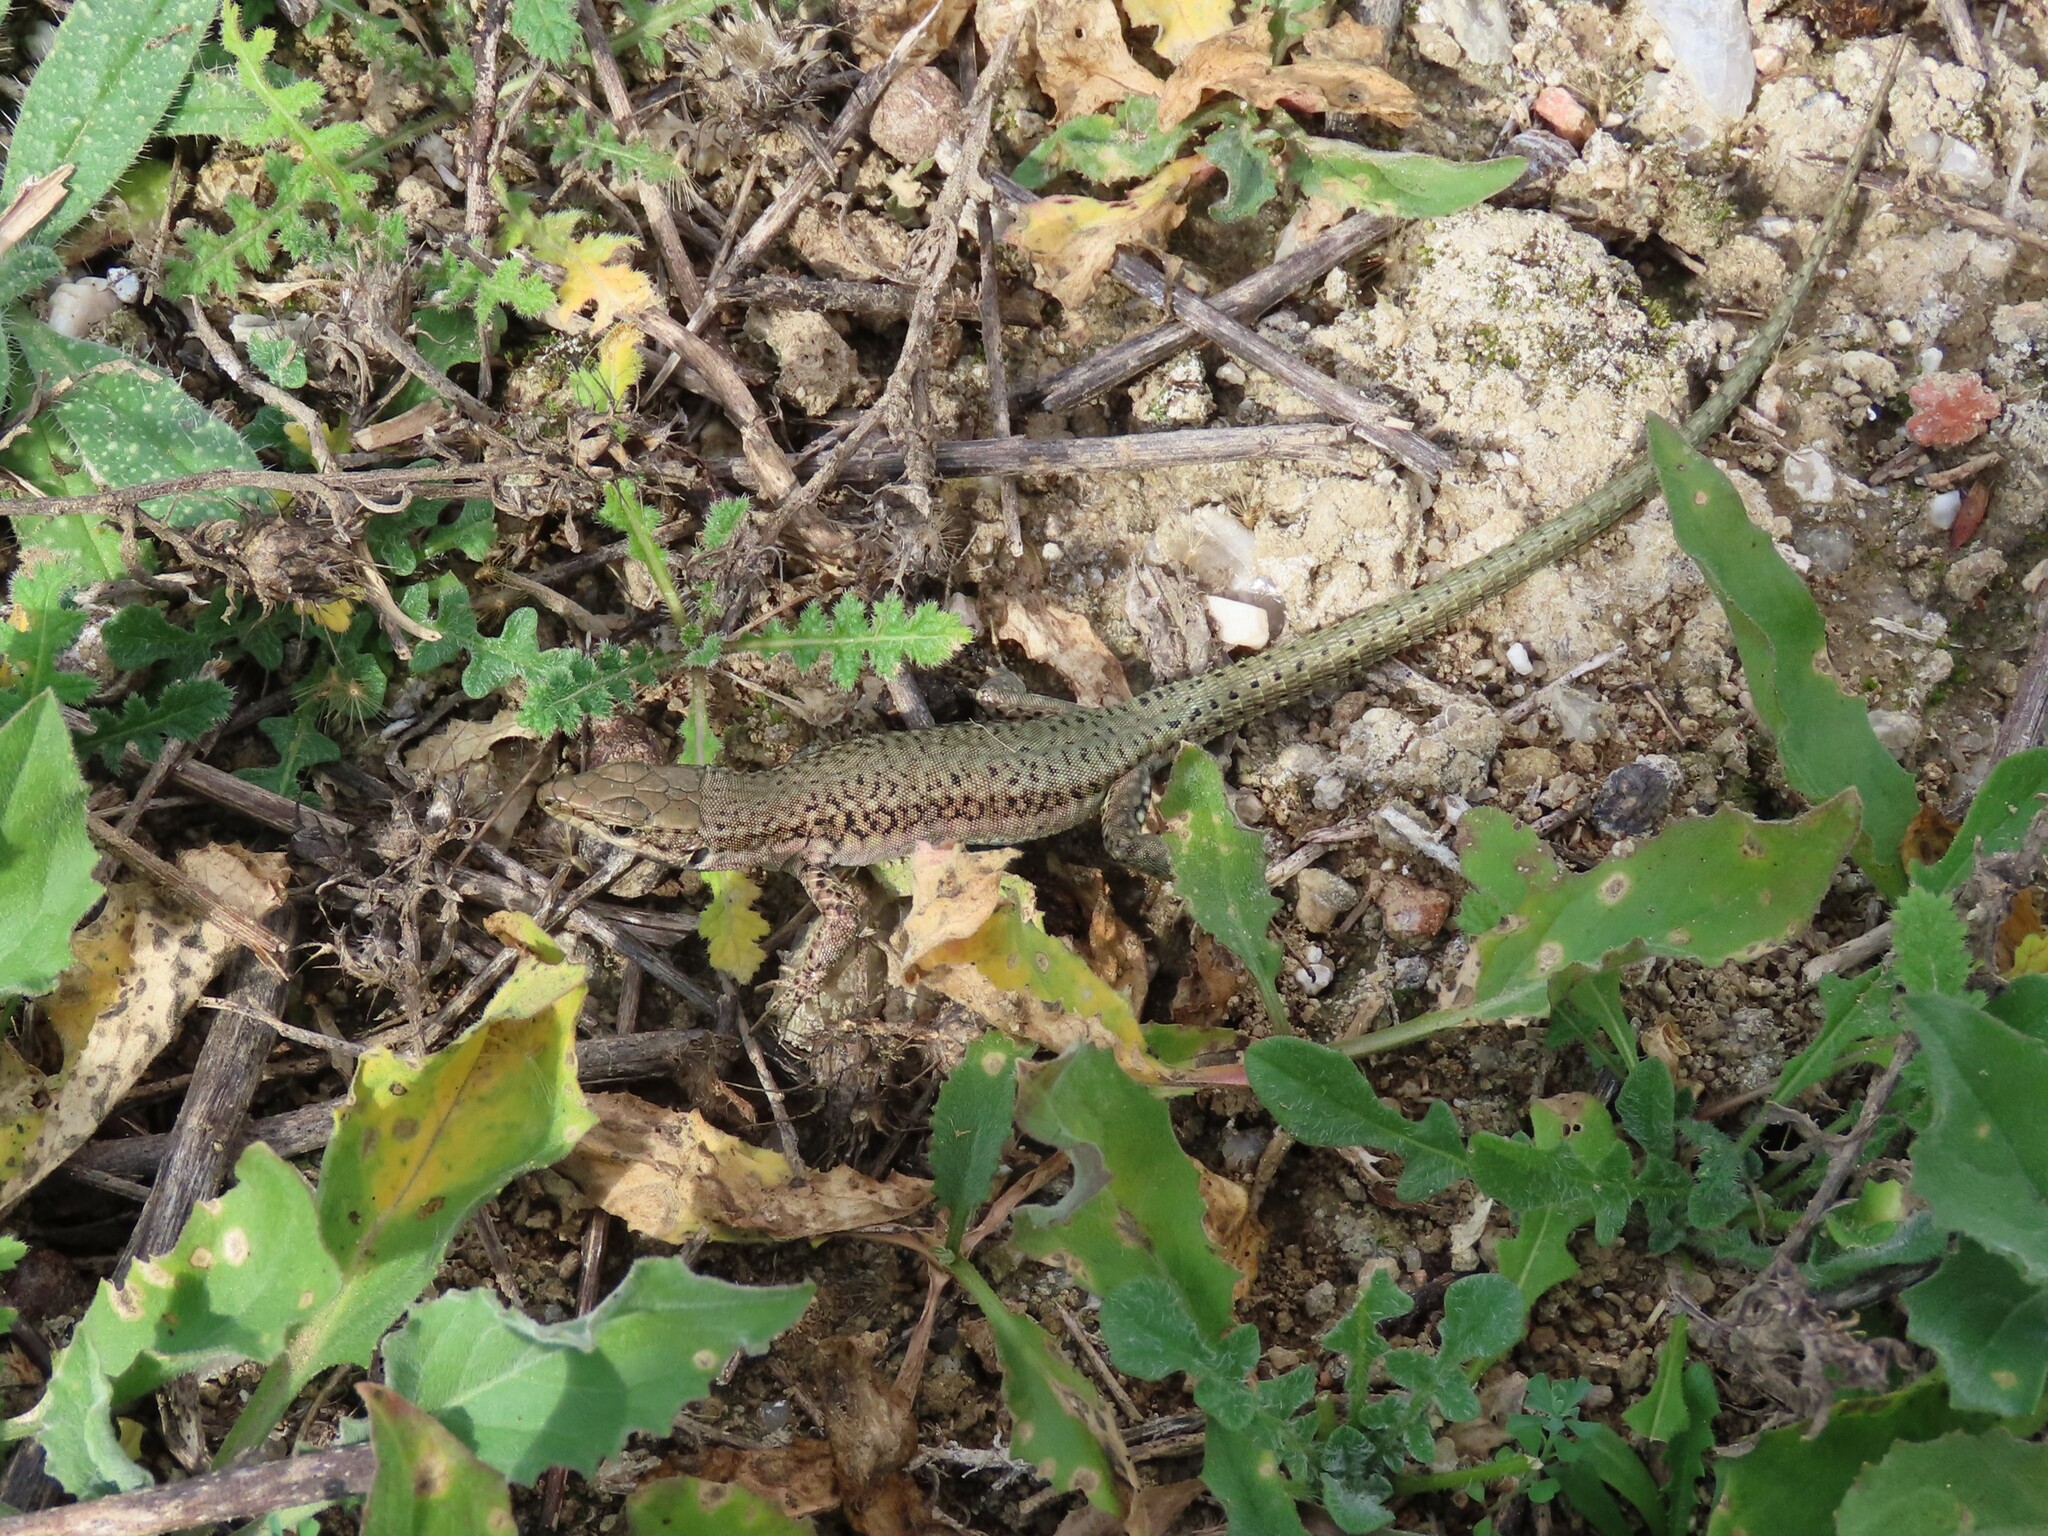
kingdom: Animalia
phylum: Chordata
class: Squamata
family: Lacertidae
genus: Podarcis
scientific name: Podarcis virescens
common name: Geniez’s wall lizard
